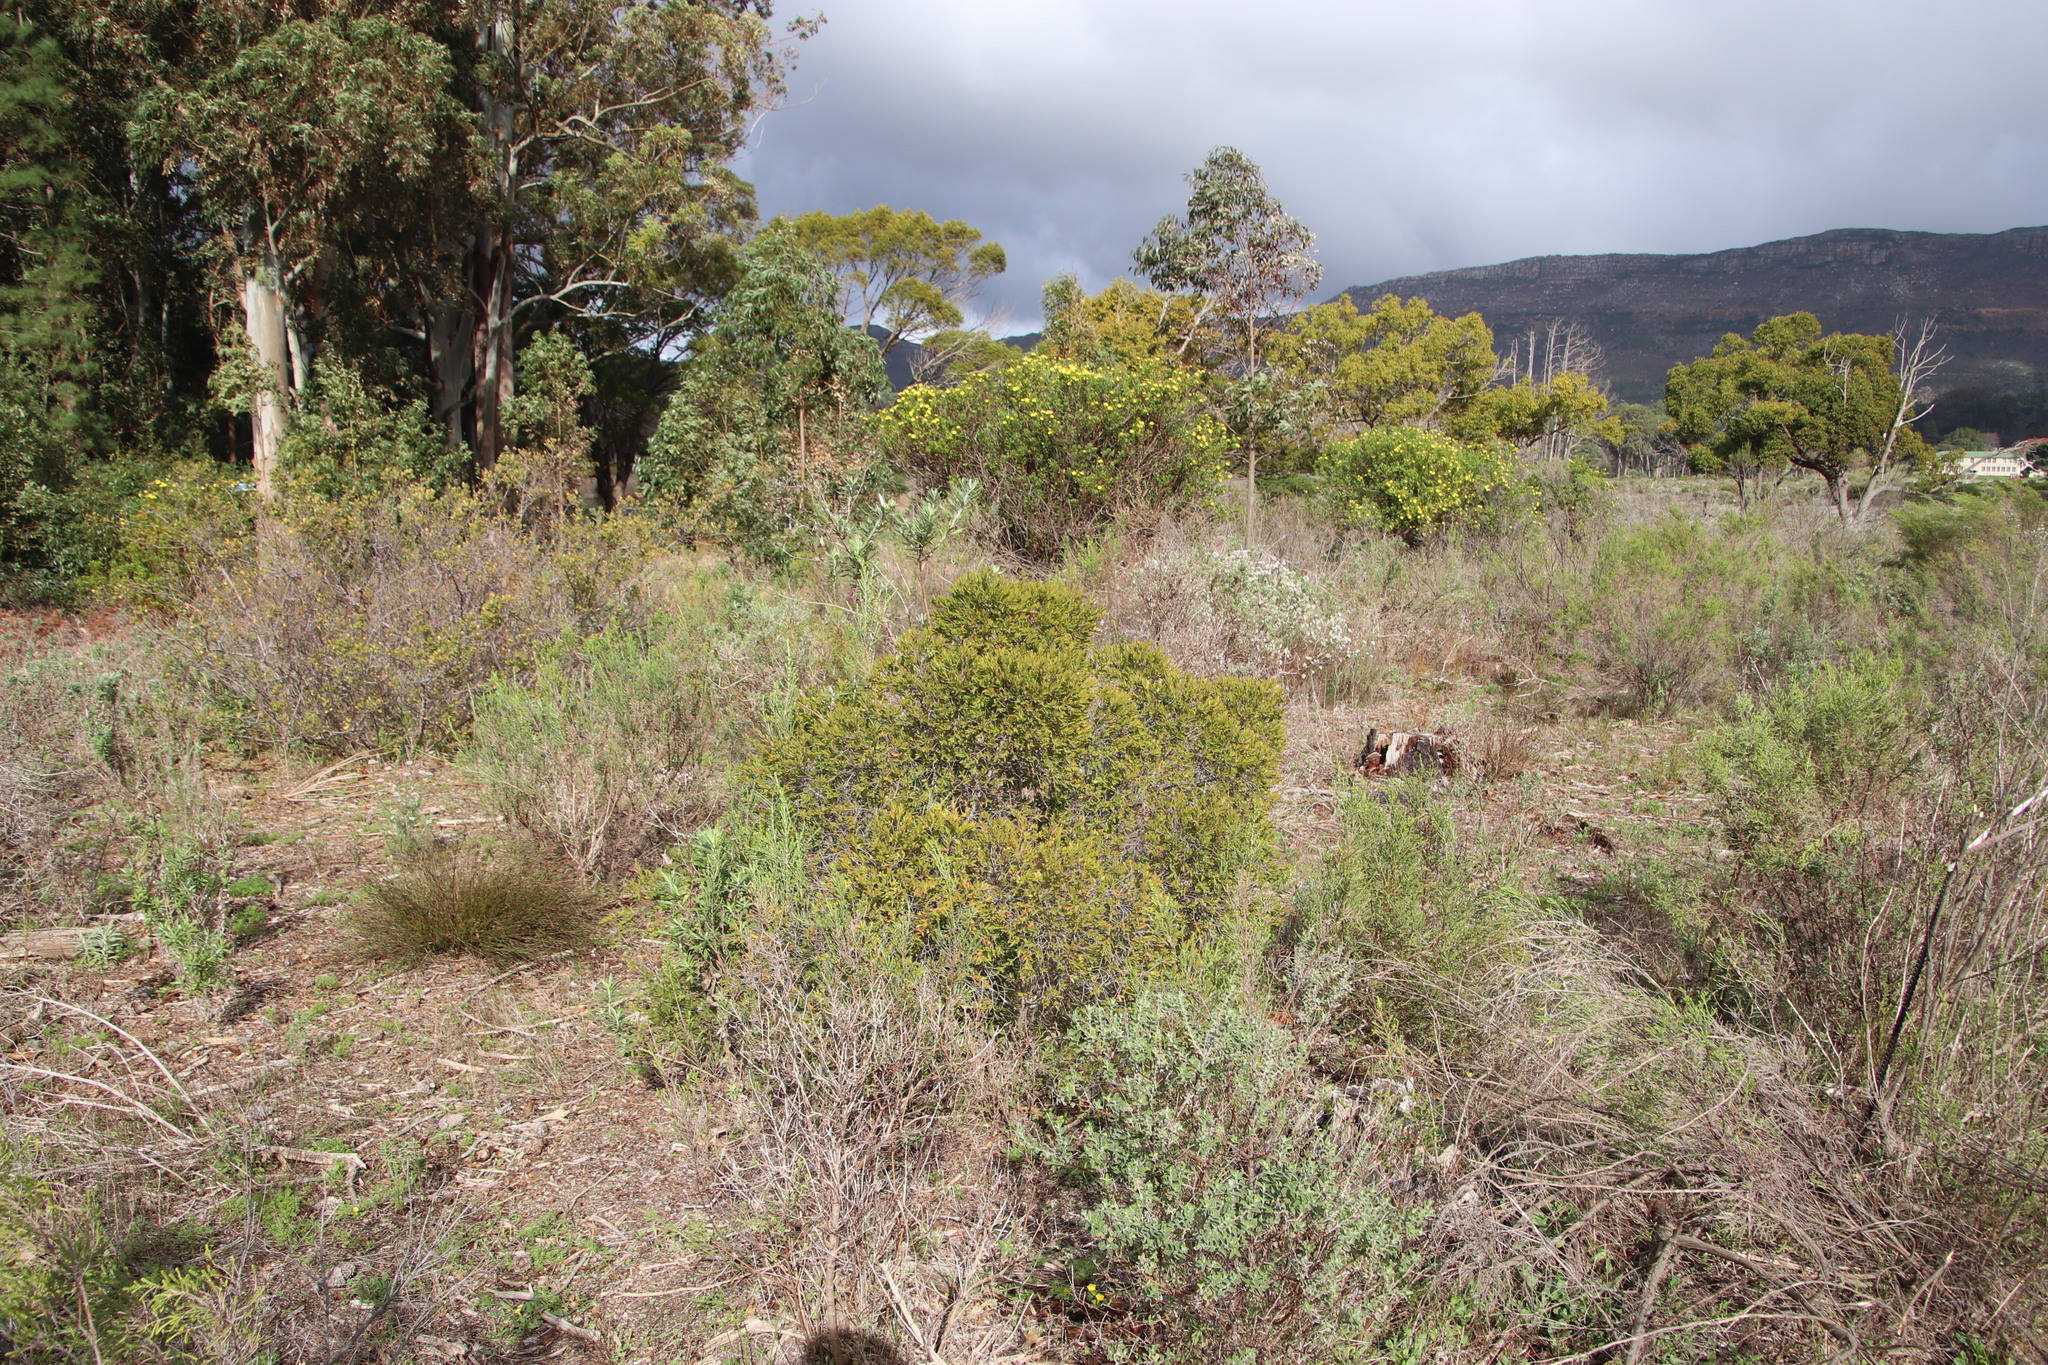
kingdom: Plantae
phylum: Tracheophyta
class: Magnoliopsida
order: Ericales
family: Ebenaceae
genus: Diospyros
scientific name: Diospyros glabra
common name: Fynbos star apple
